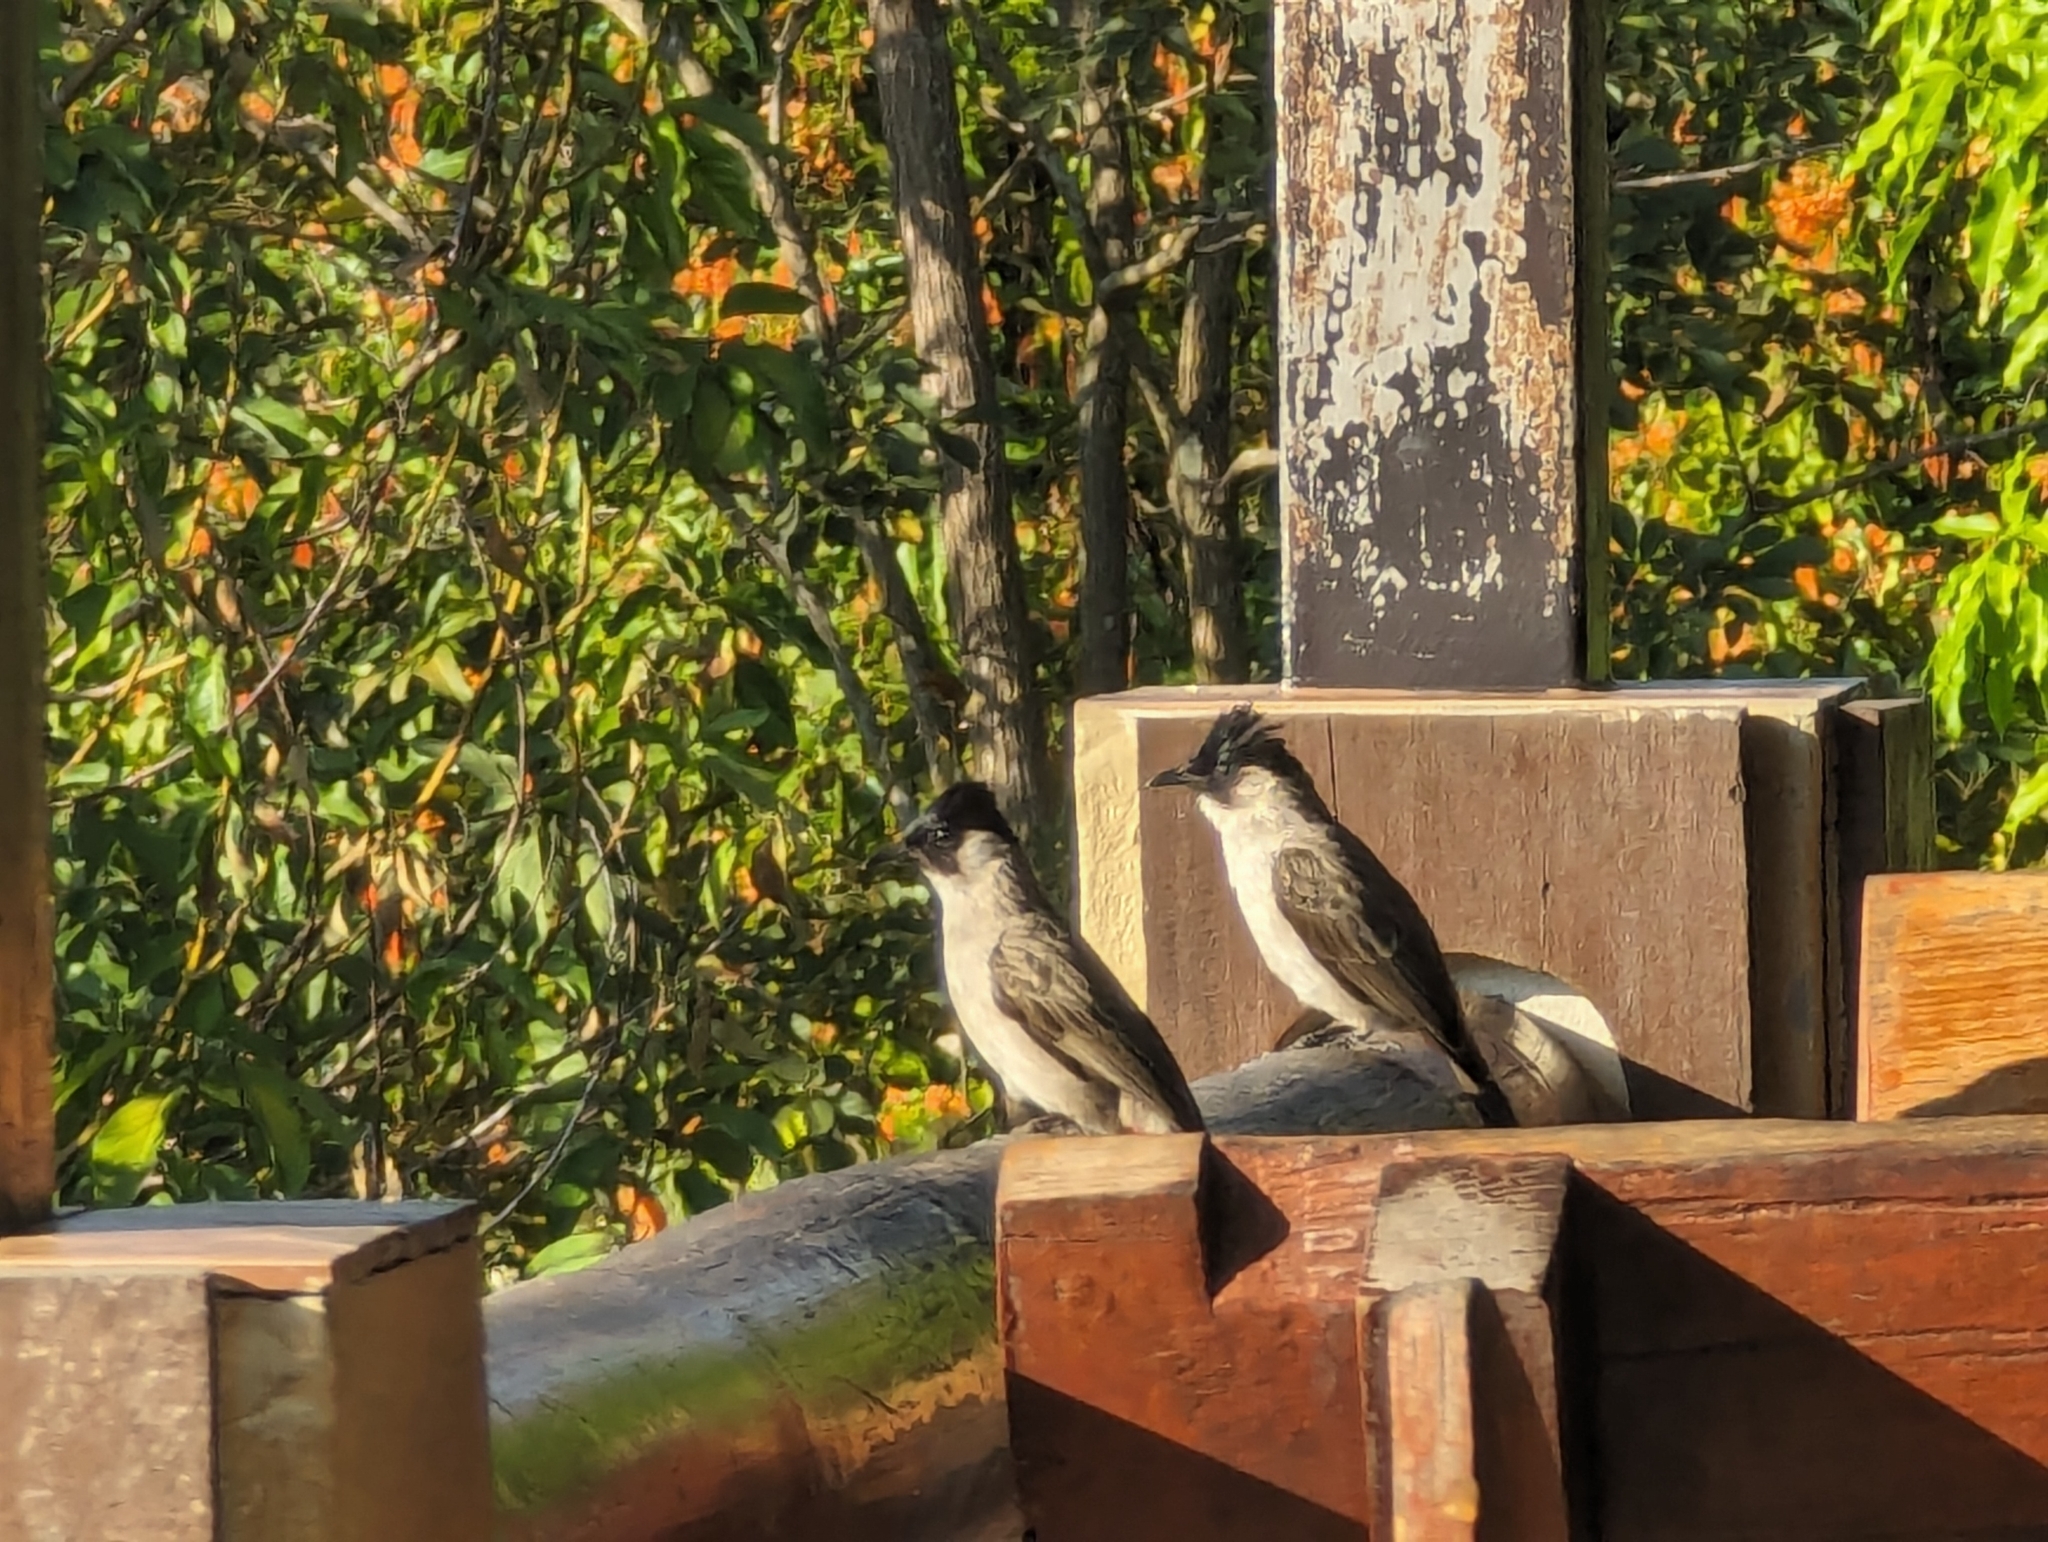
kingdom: Animalia
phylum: Chordata
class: Aves
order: Passeriformes
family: Pycnonotidae
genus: Pycnonotus
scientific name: Pycnonotus aurigaster
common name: Sooty-headed bulbul
